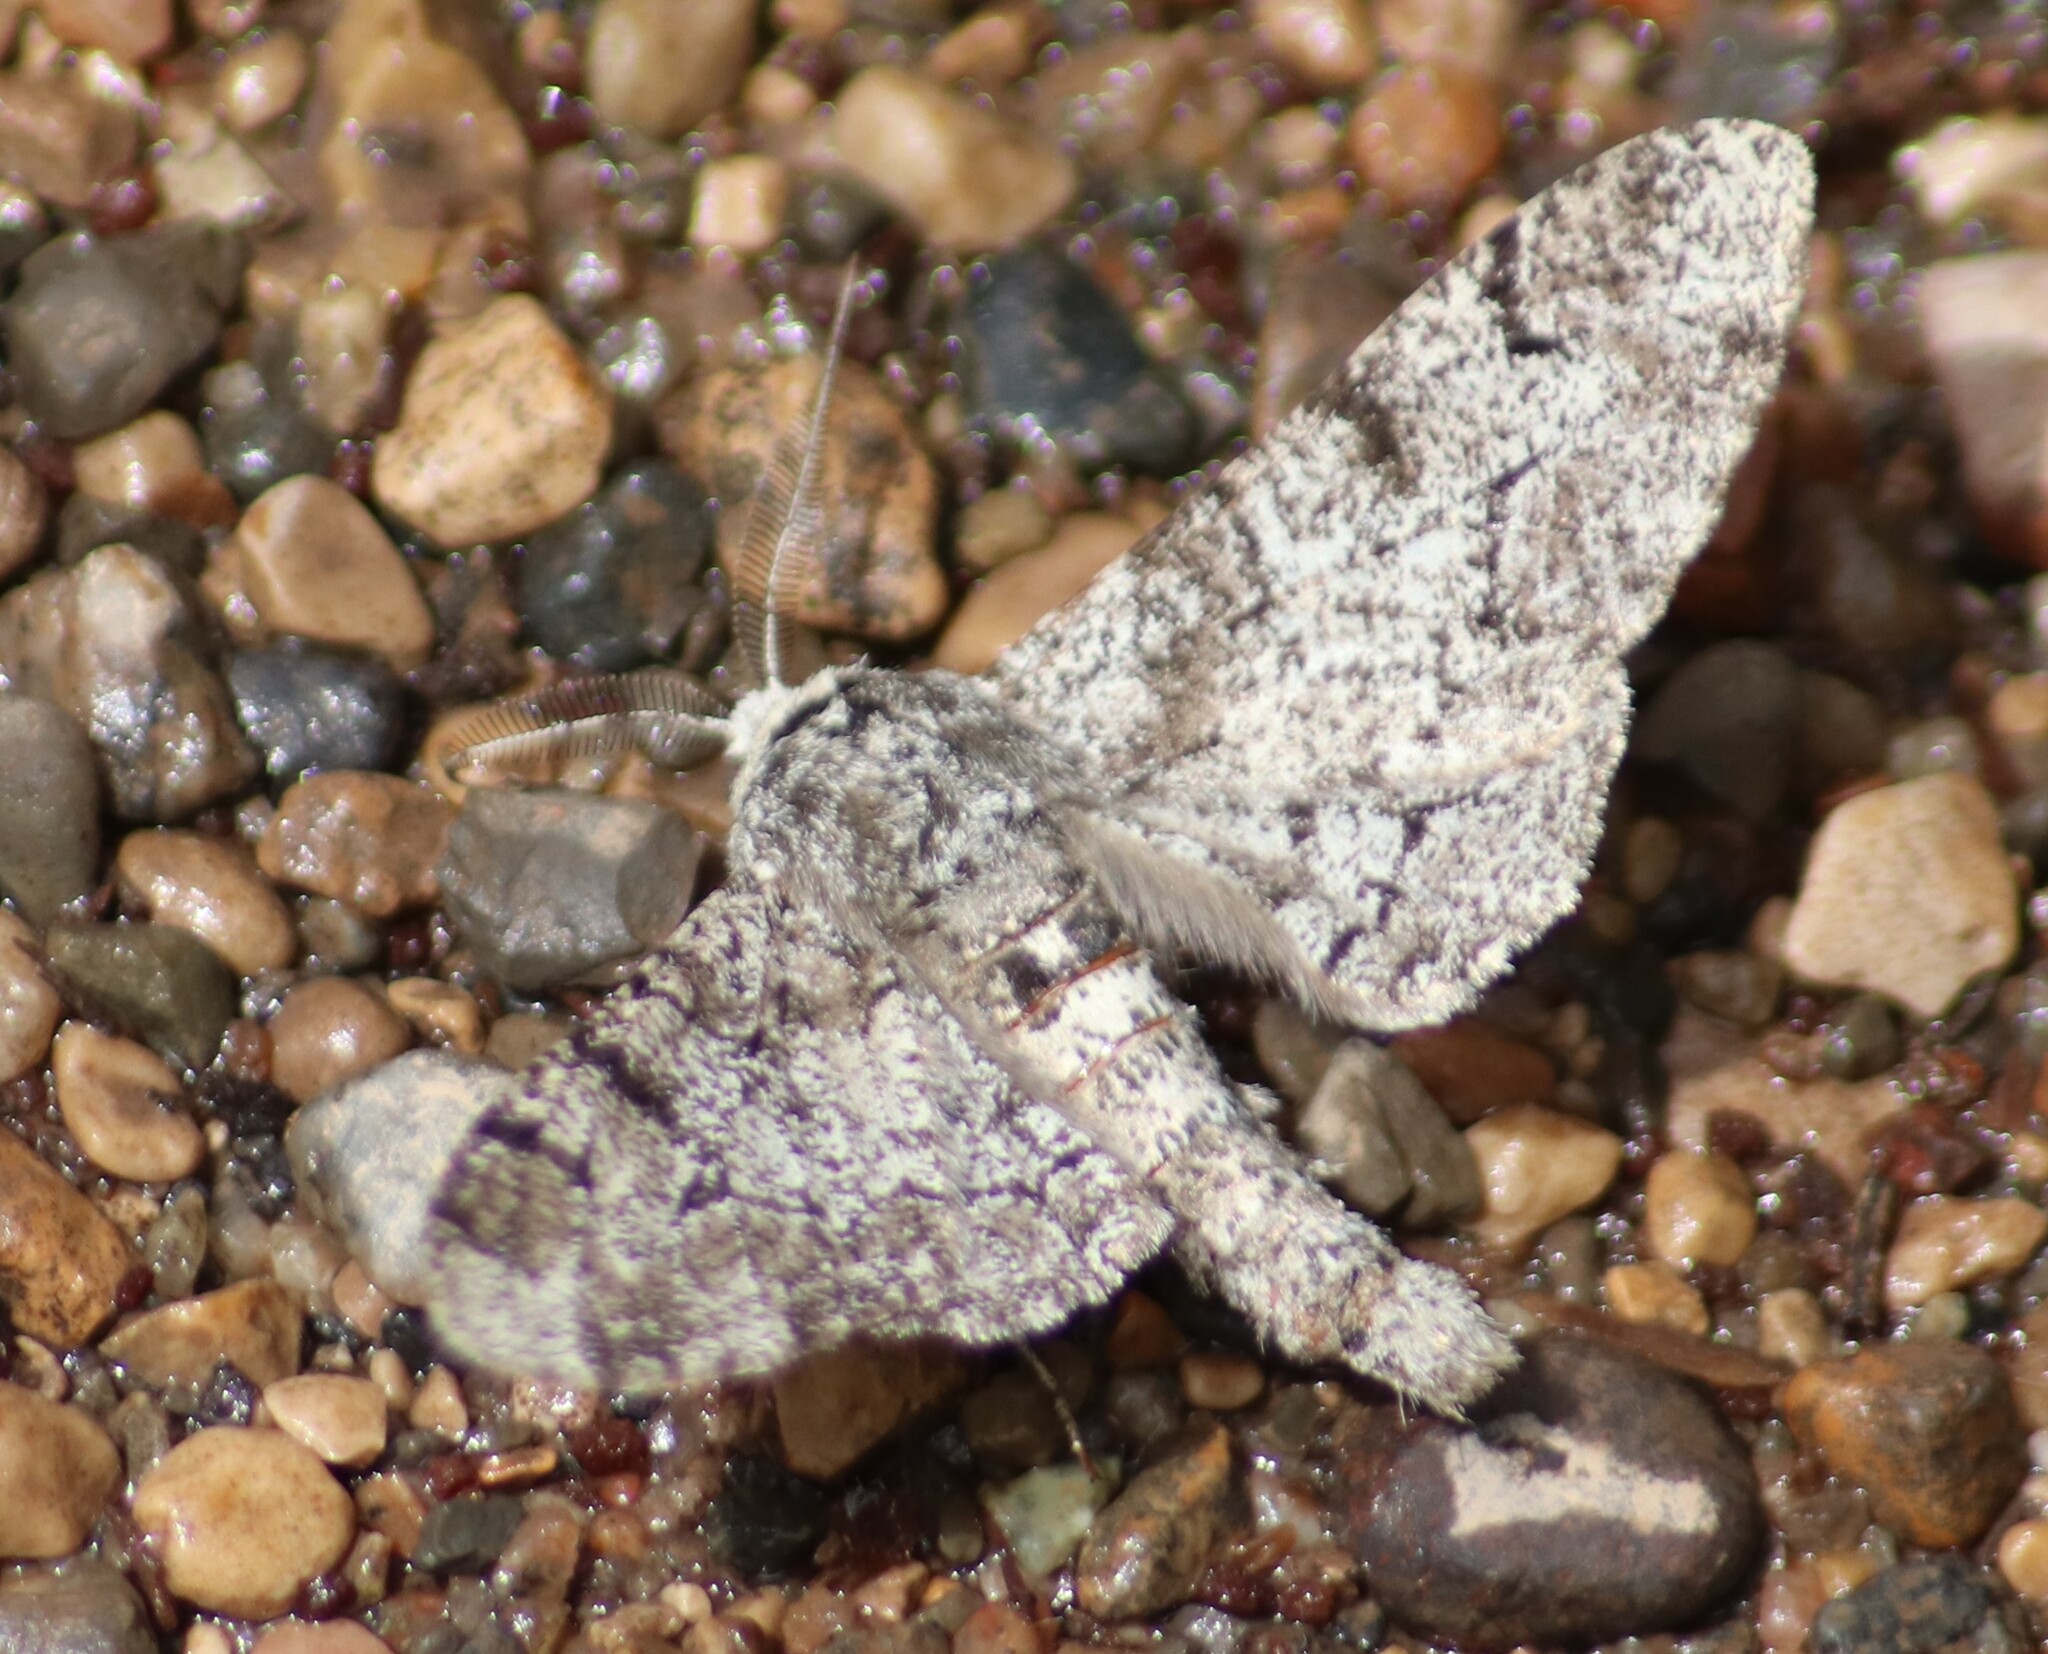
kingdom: Animalia
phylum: Arthropoda
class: Insecta
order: Lepidoptera
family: Geometridae
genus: Biston
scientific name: Biston betularia
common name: Peppered moth
